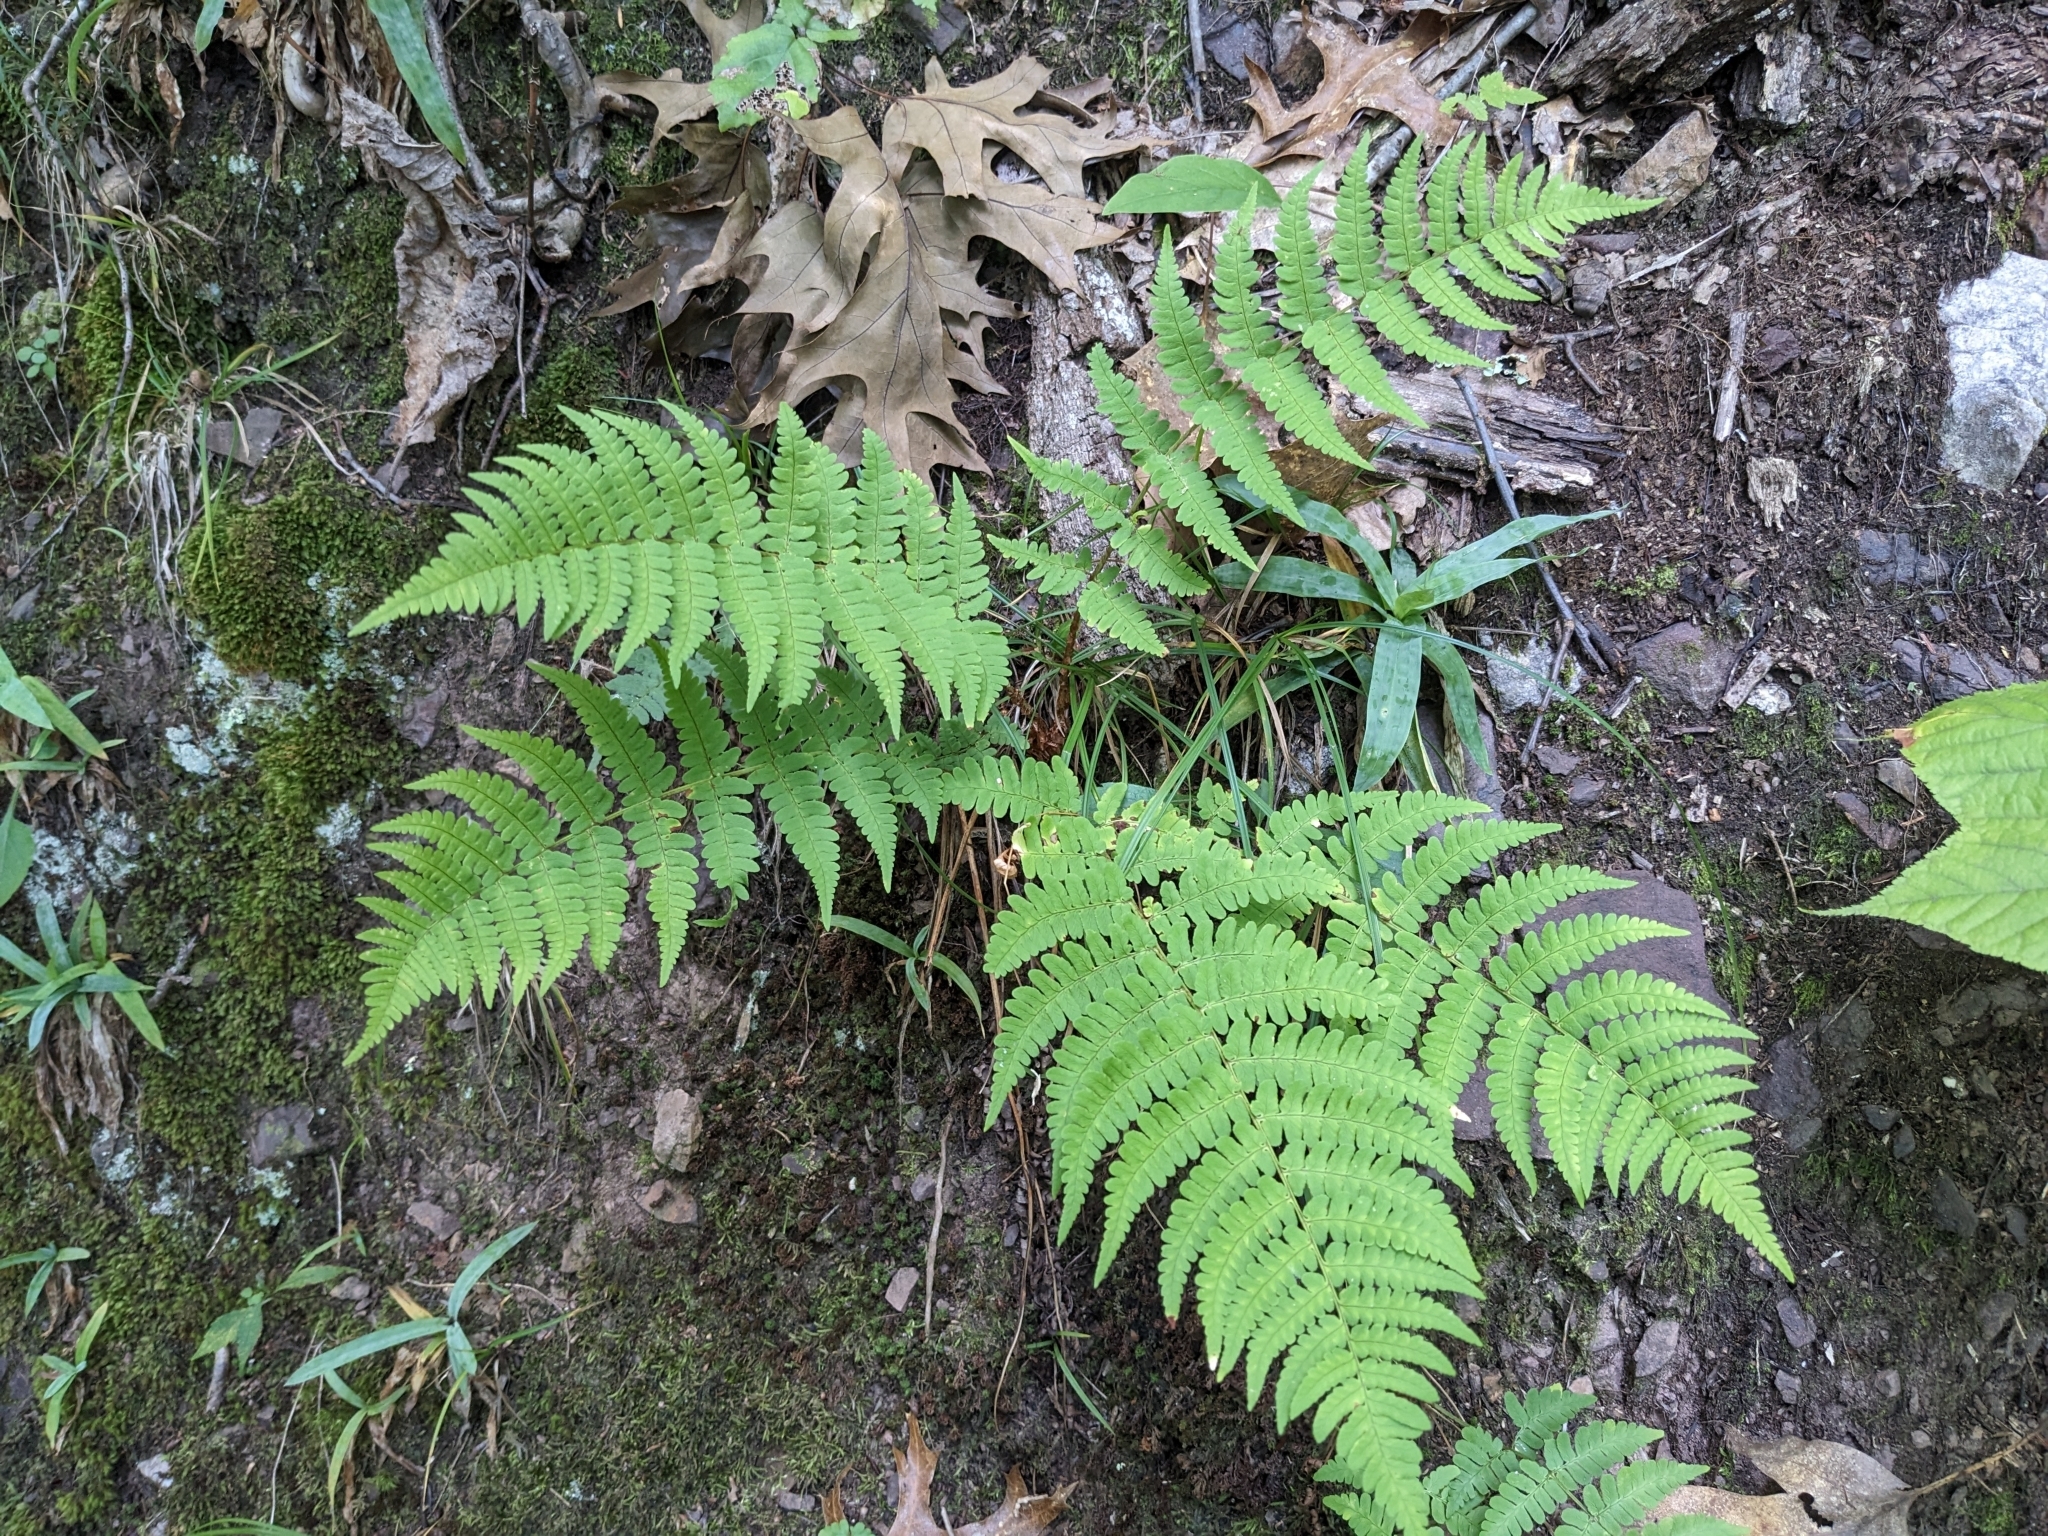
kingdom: Plantae
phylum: Tracheophyta
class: Polypodiopsida
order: Polypodiales
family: Dryopteridaceae
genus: Dryopteris
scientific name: Dryopteris marginalis
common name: Marginal wood fern
